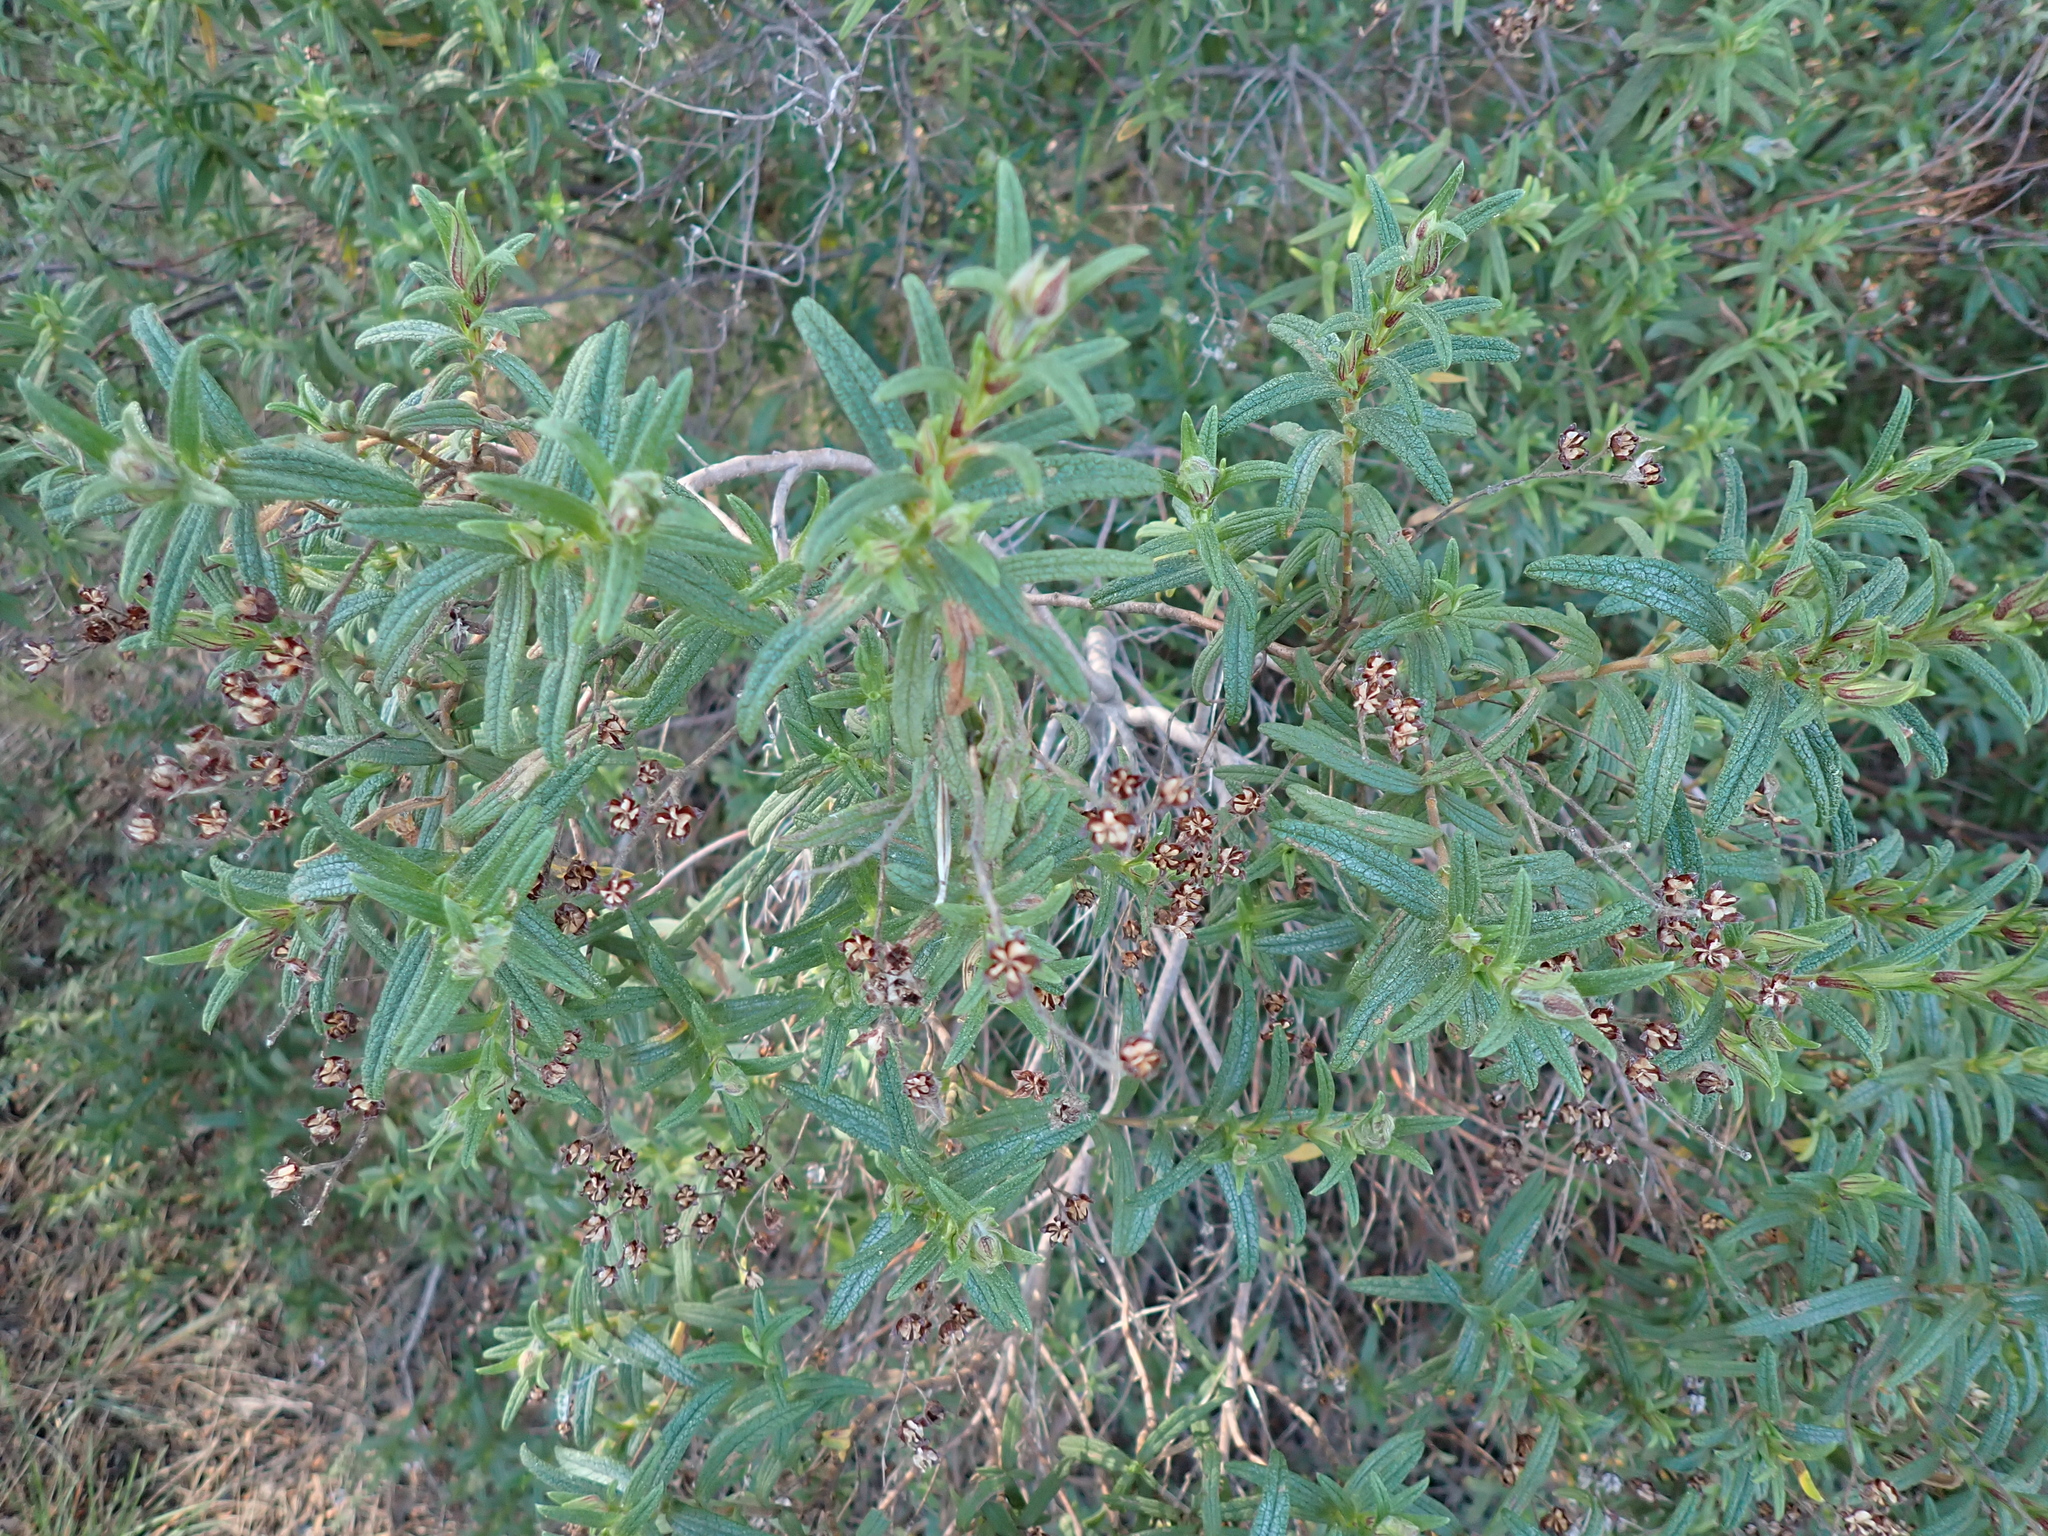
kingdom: Plantae
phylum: Tracheophyta
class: Magnoliopsida
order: Malvales
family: Cistaceae
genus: Cistus
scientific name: Cistus monspeliensis
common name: Montpelier cistus
